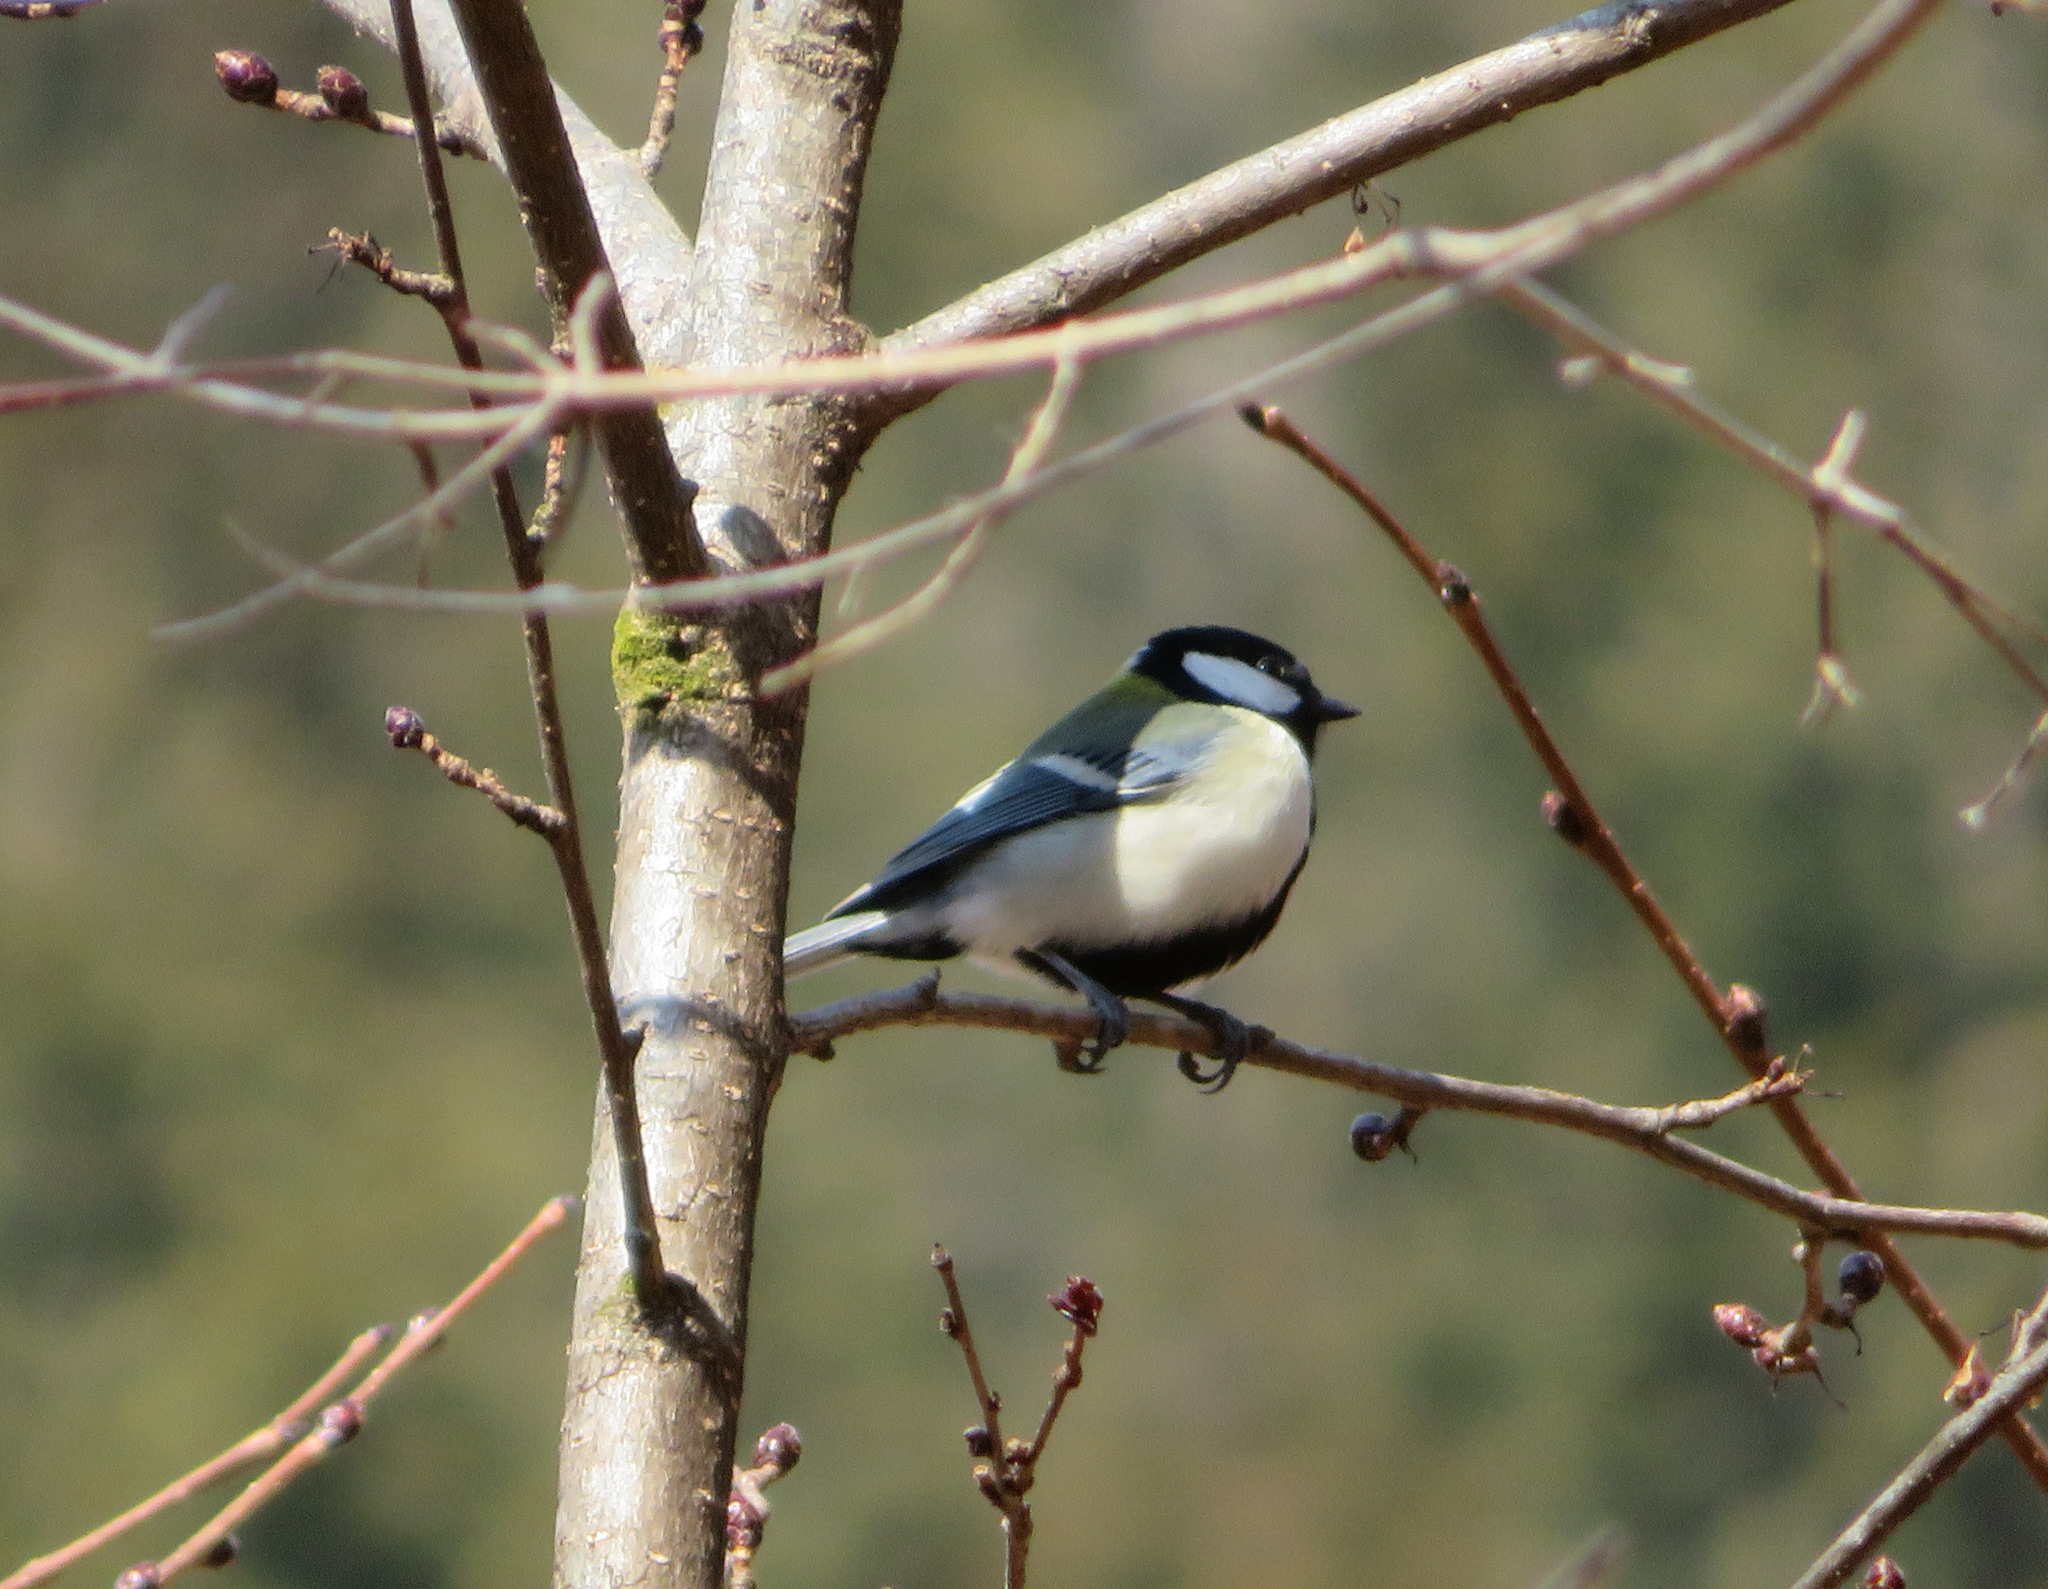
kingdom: Animalia
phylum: Chordata
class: Aves
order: Passeriformes
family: Paridae
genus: Parus
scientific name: Parus minor
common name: Japanese tit
